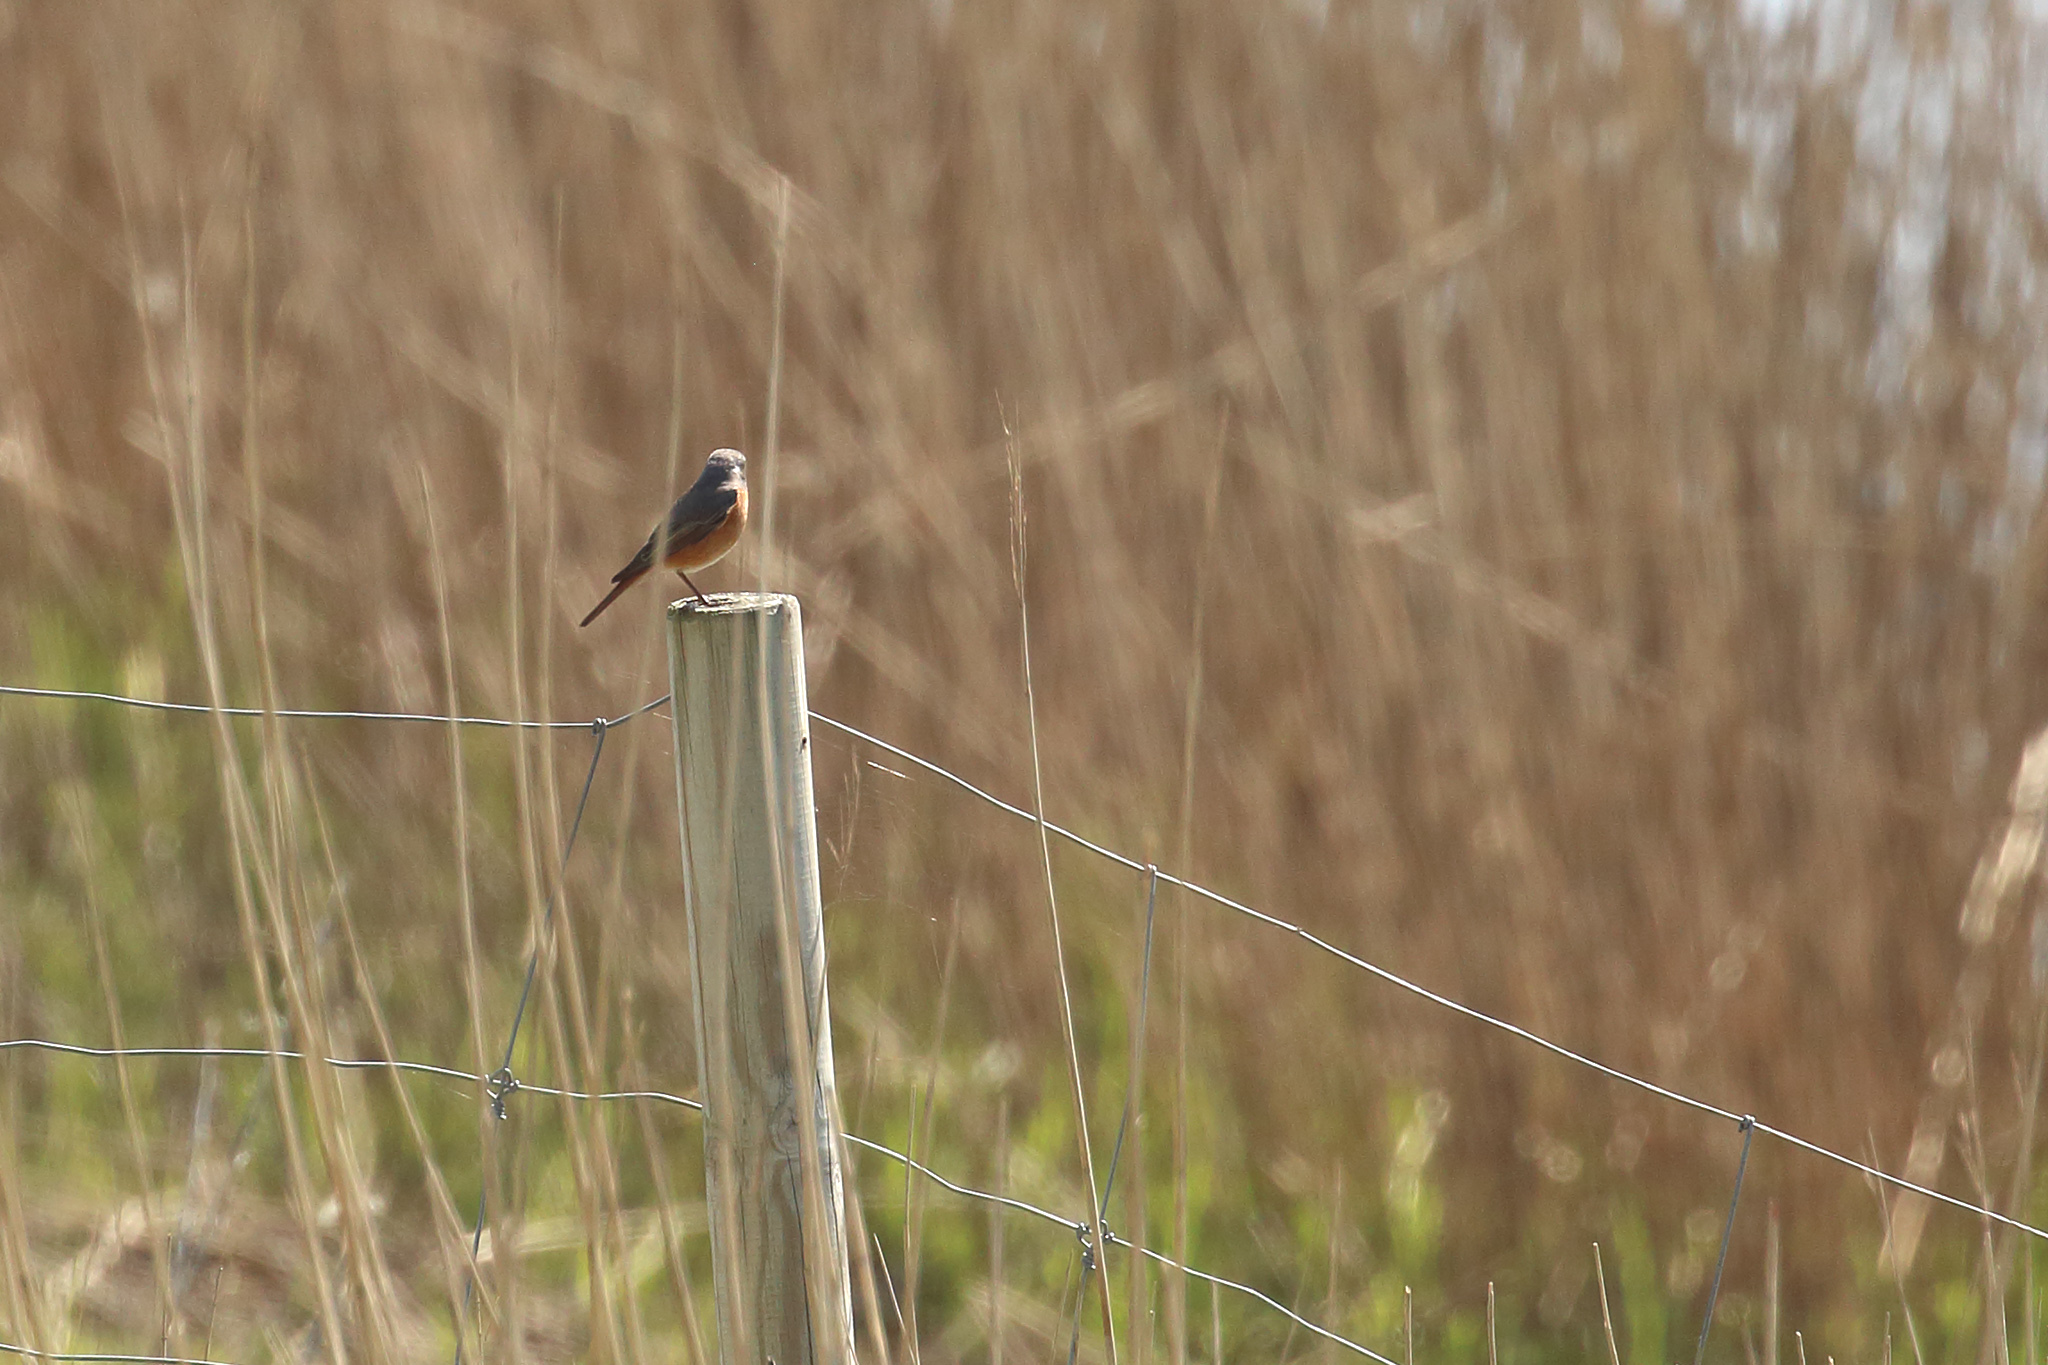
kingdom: Animalia
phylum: Chordata
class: Aves
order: Passeriformes
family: Muscicapidae
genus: Phoenicurus
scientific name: Phoenicurus phoenicurus
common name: Common redstart
